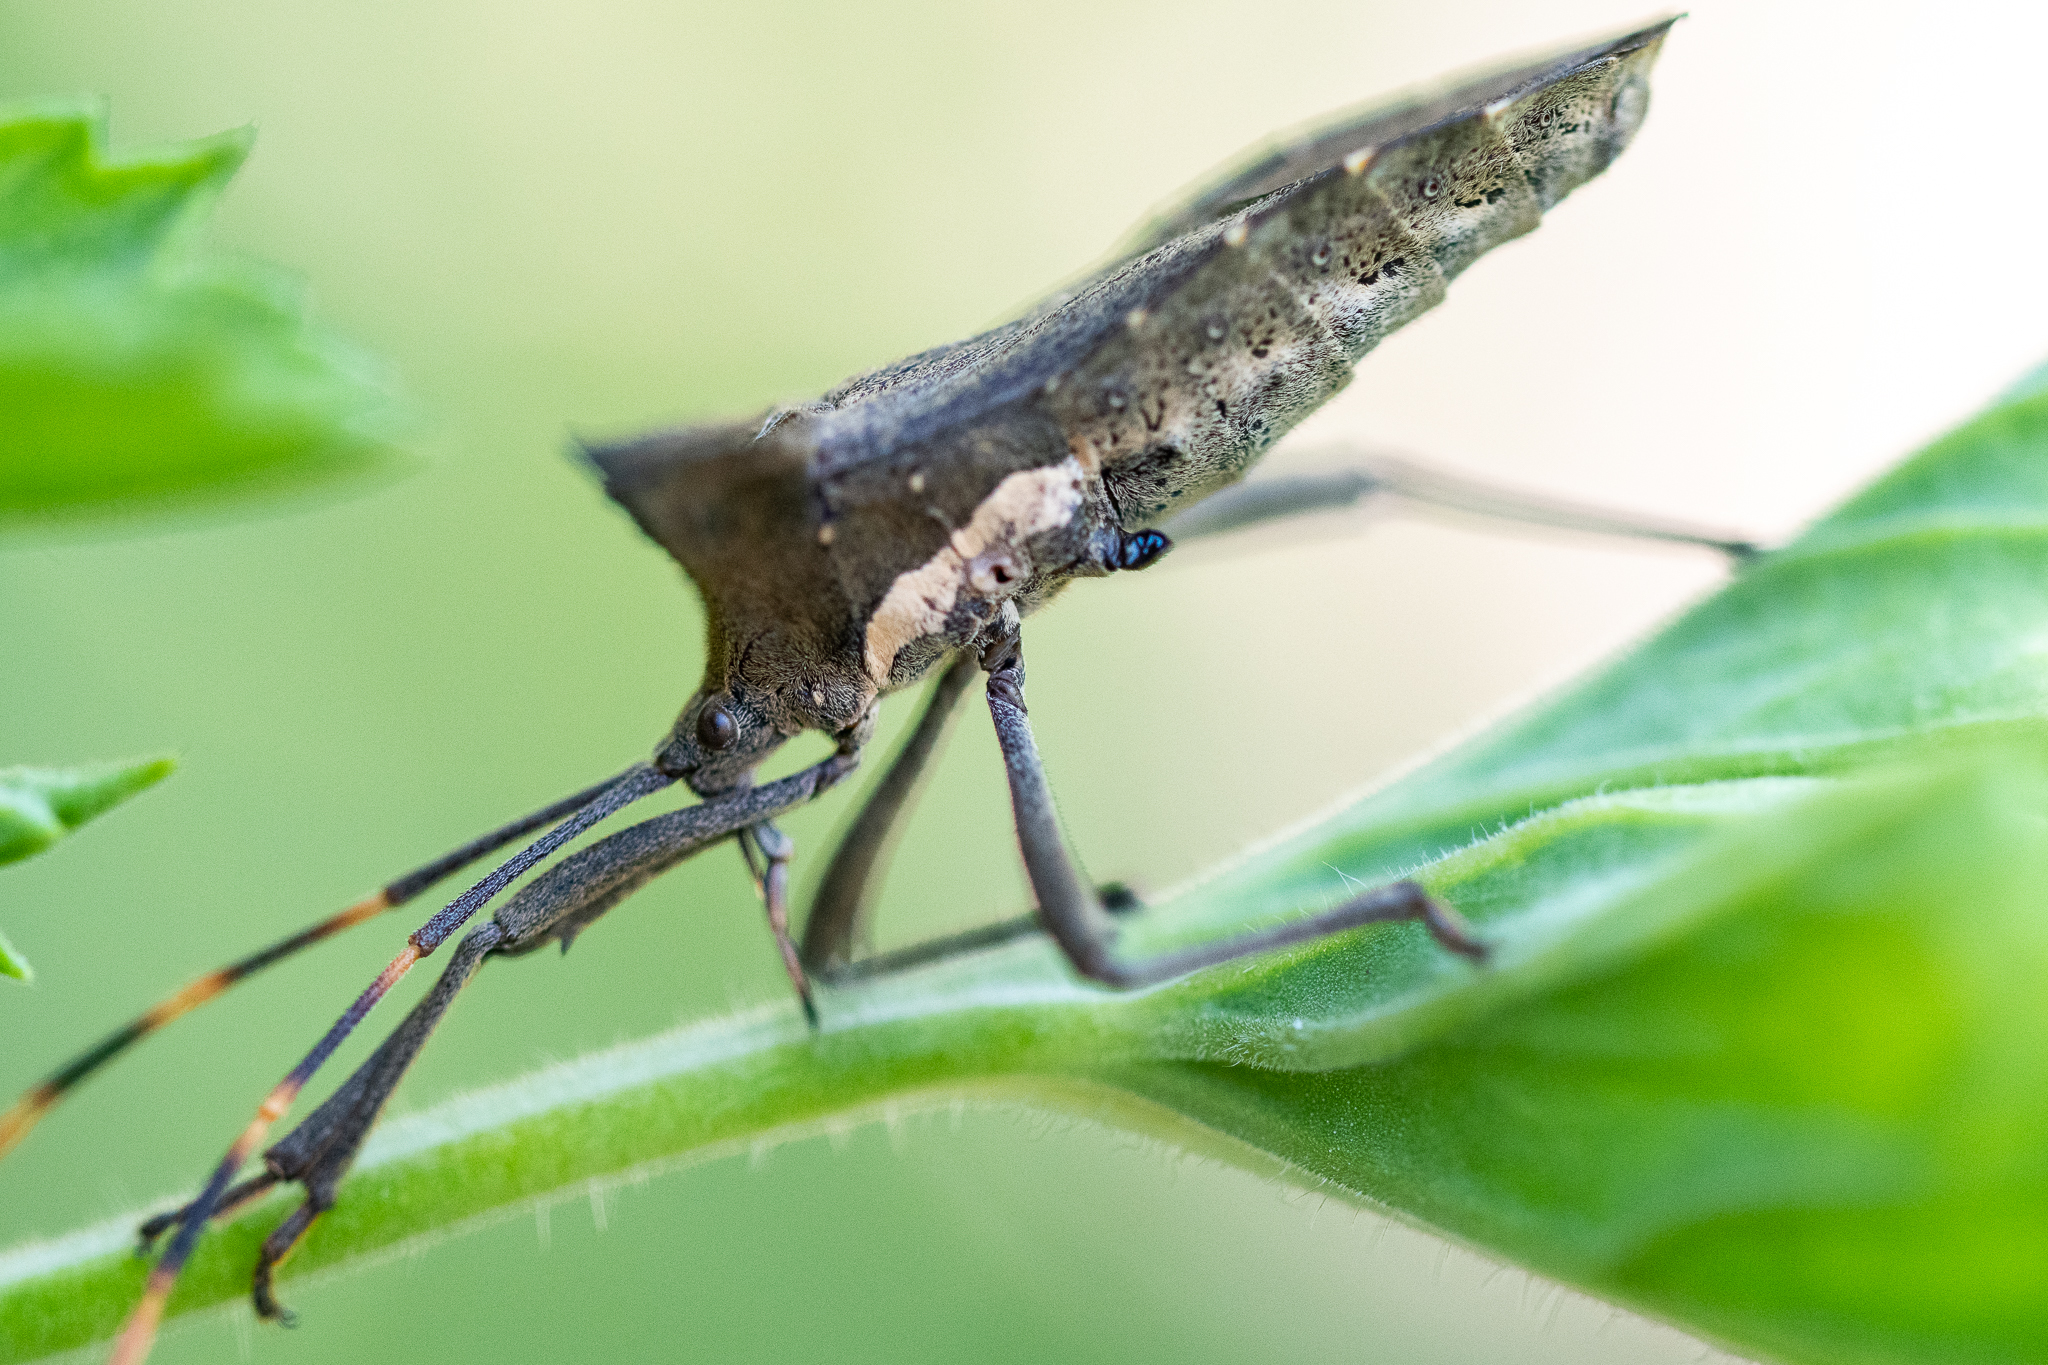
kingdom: Animalia
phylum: Arthropoda
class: Insecta
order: Hemiptera
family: Coreidae
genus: Elasmopoda
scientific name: Elasmopoda valga
